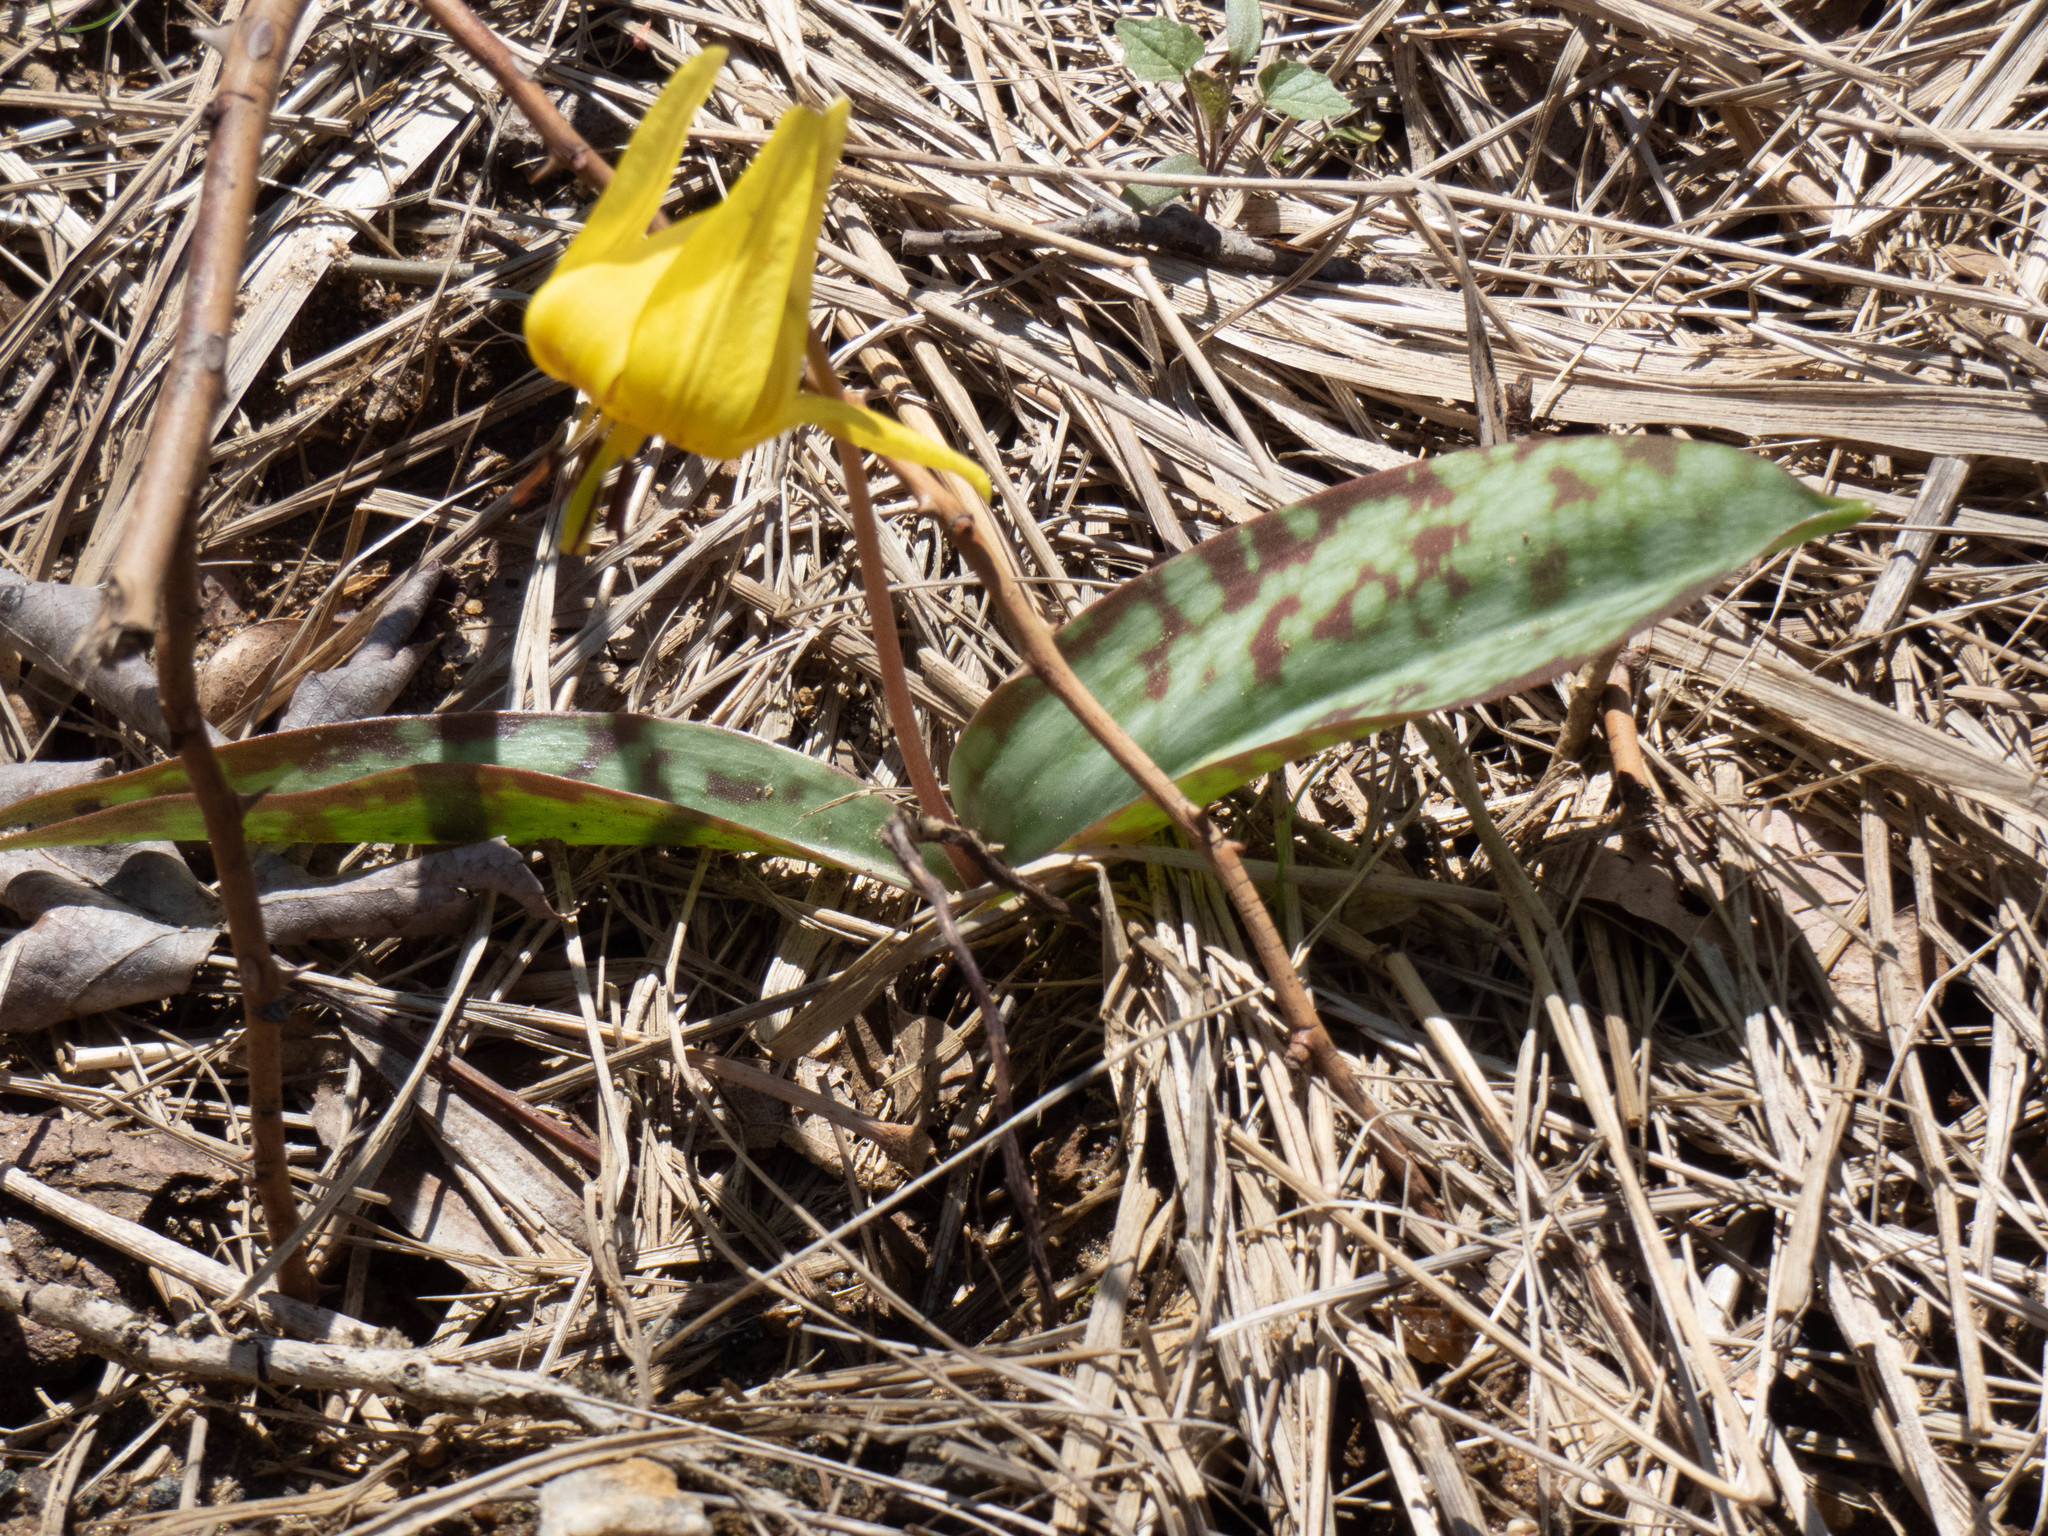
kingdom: Plantae
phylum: Tracheophyta
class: Liliopsida
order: Liliales
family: Liliaceae
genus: Erythronium
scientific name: Erythronium americanum
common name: Yellow adder's-tongue
